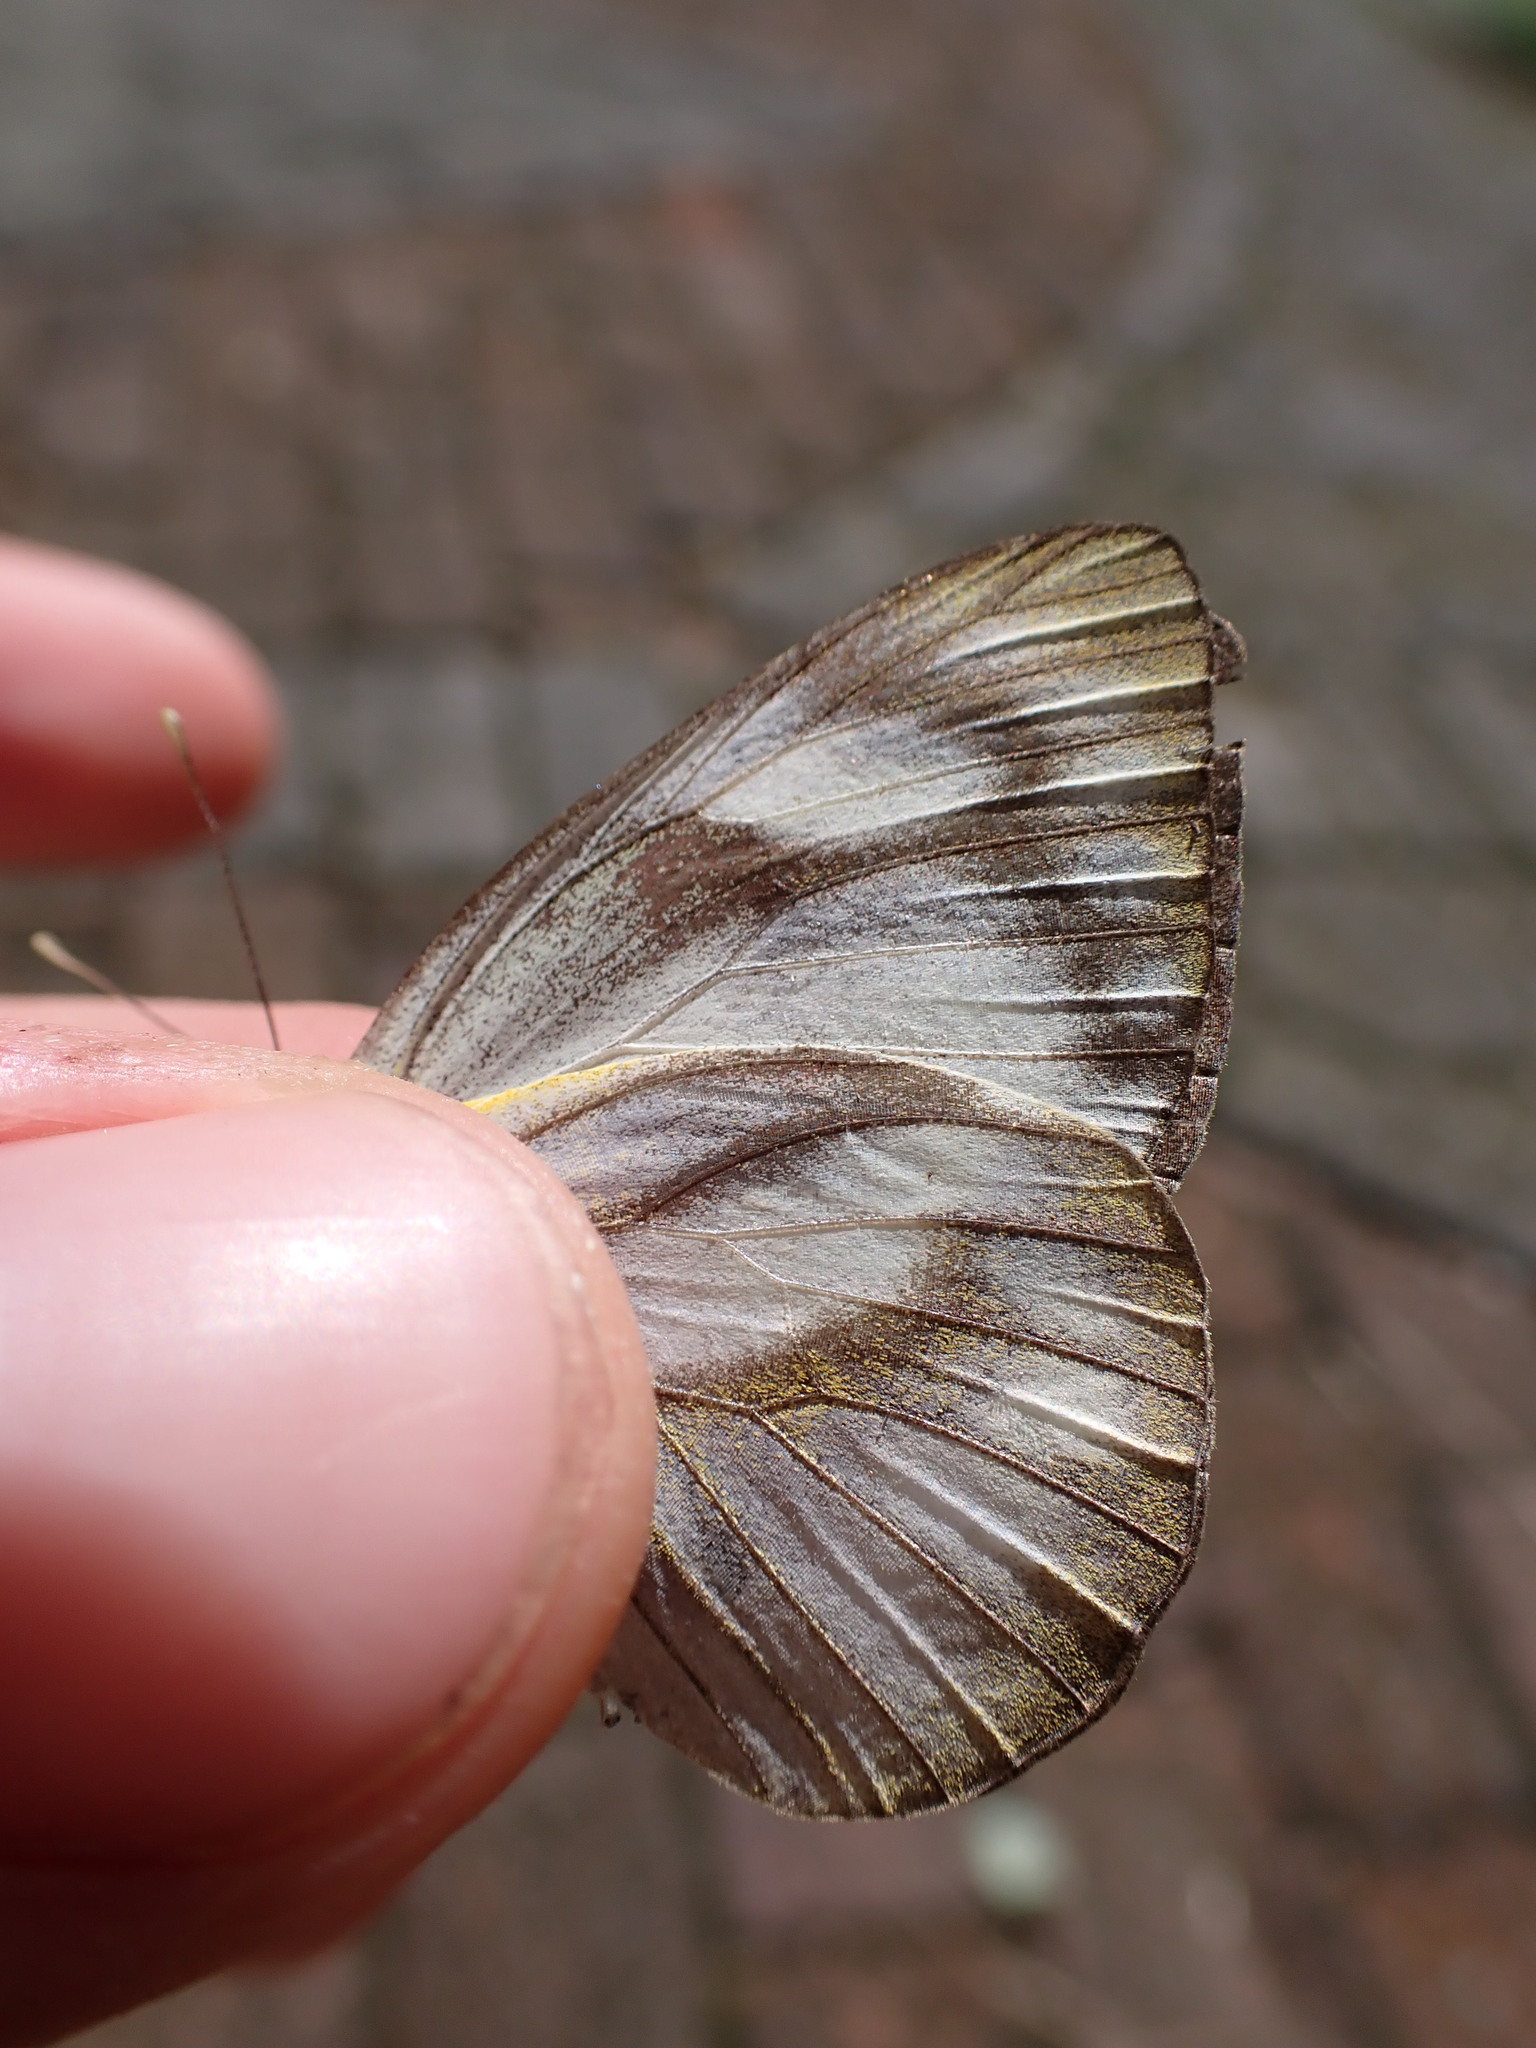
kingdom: Animalia
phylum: Arthropoda
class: Insecta
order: Lepidoptera
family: Pieridae
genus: Appias
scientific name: Appias libythea
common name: Striped albatross
